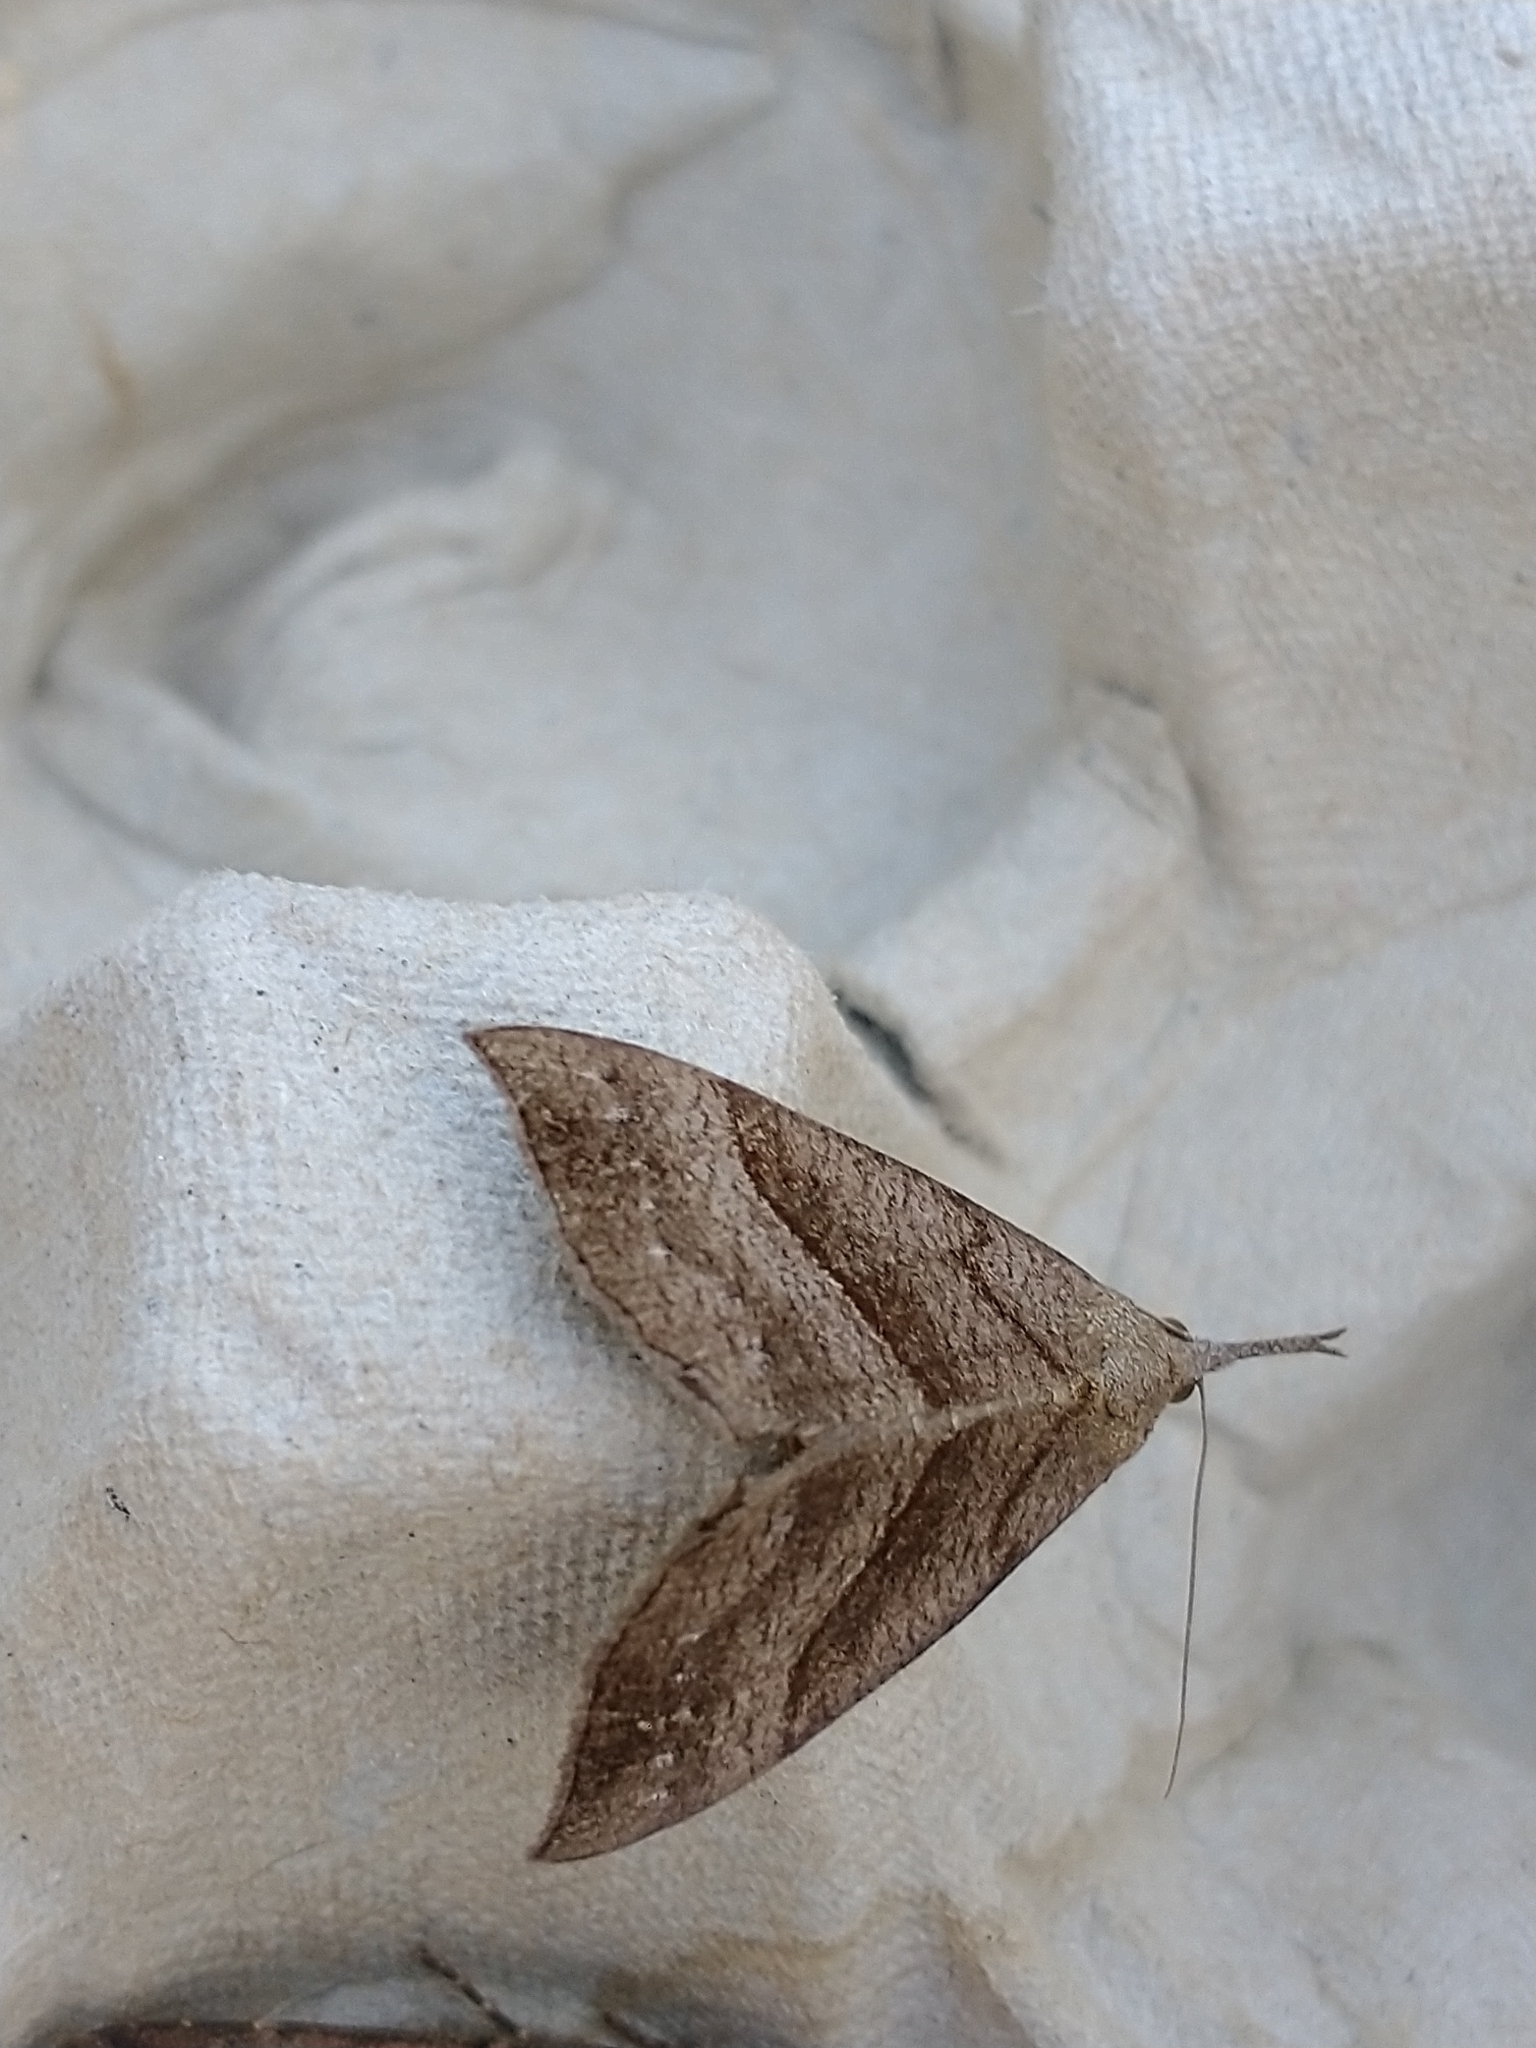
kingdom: Animalia
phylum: Arthropoda
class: Insecta
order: Lepidoptera
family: Erebidae
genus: Hypena
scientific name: Hypena proboscidalis
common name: Snout
